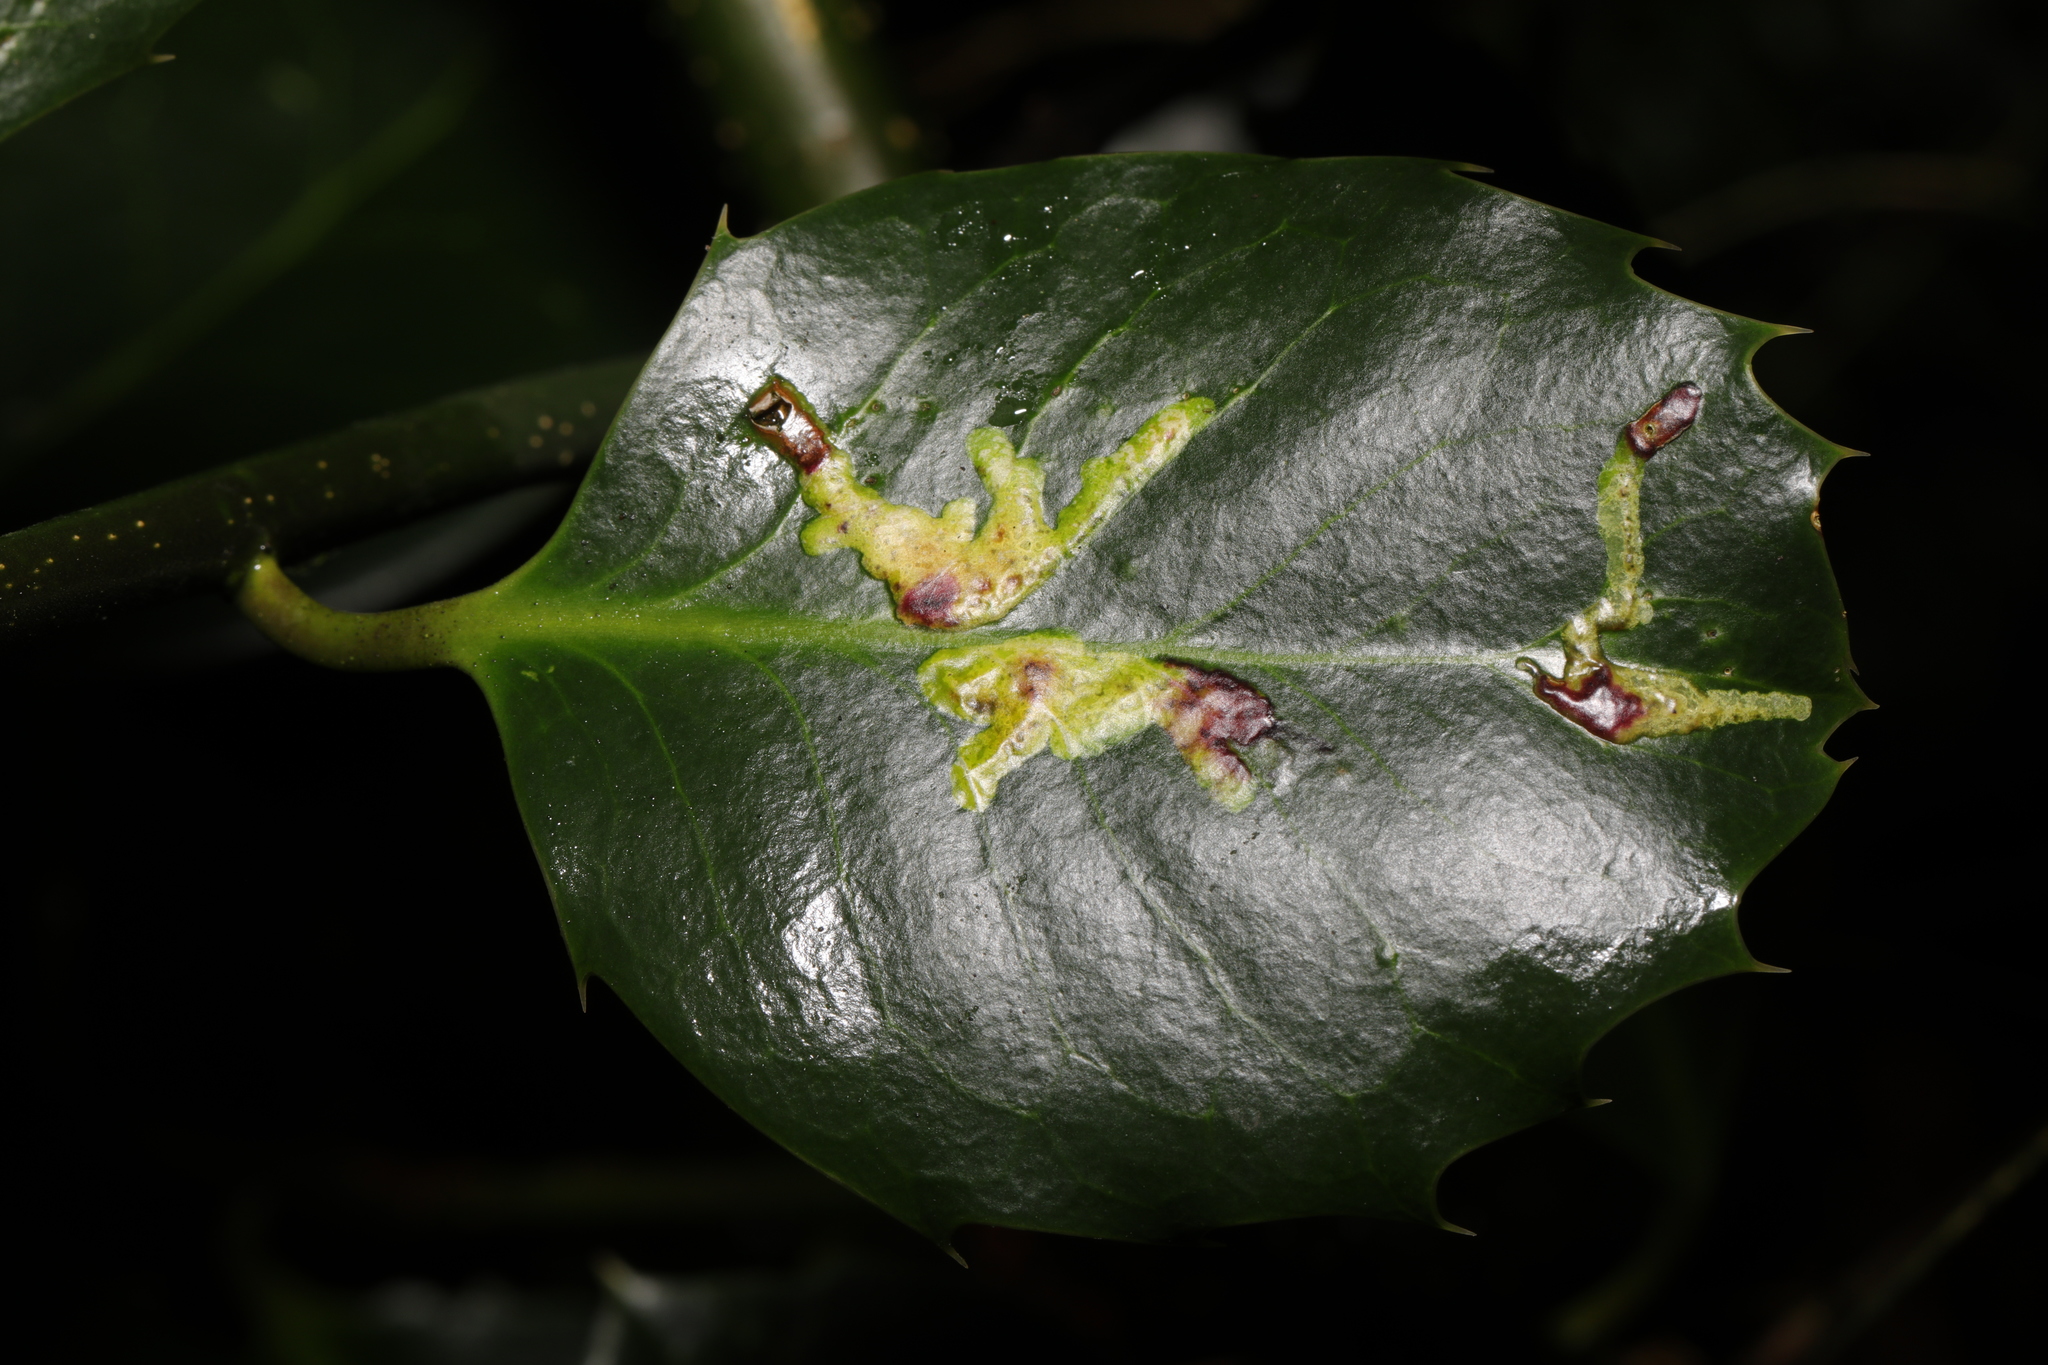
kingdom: Animalia
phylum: Arthropoda
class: Insecta
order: Diptera
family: Agromyzidae
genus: Phytomyza
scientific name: Phytomyza ilicis
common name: Holly leafminer
